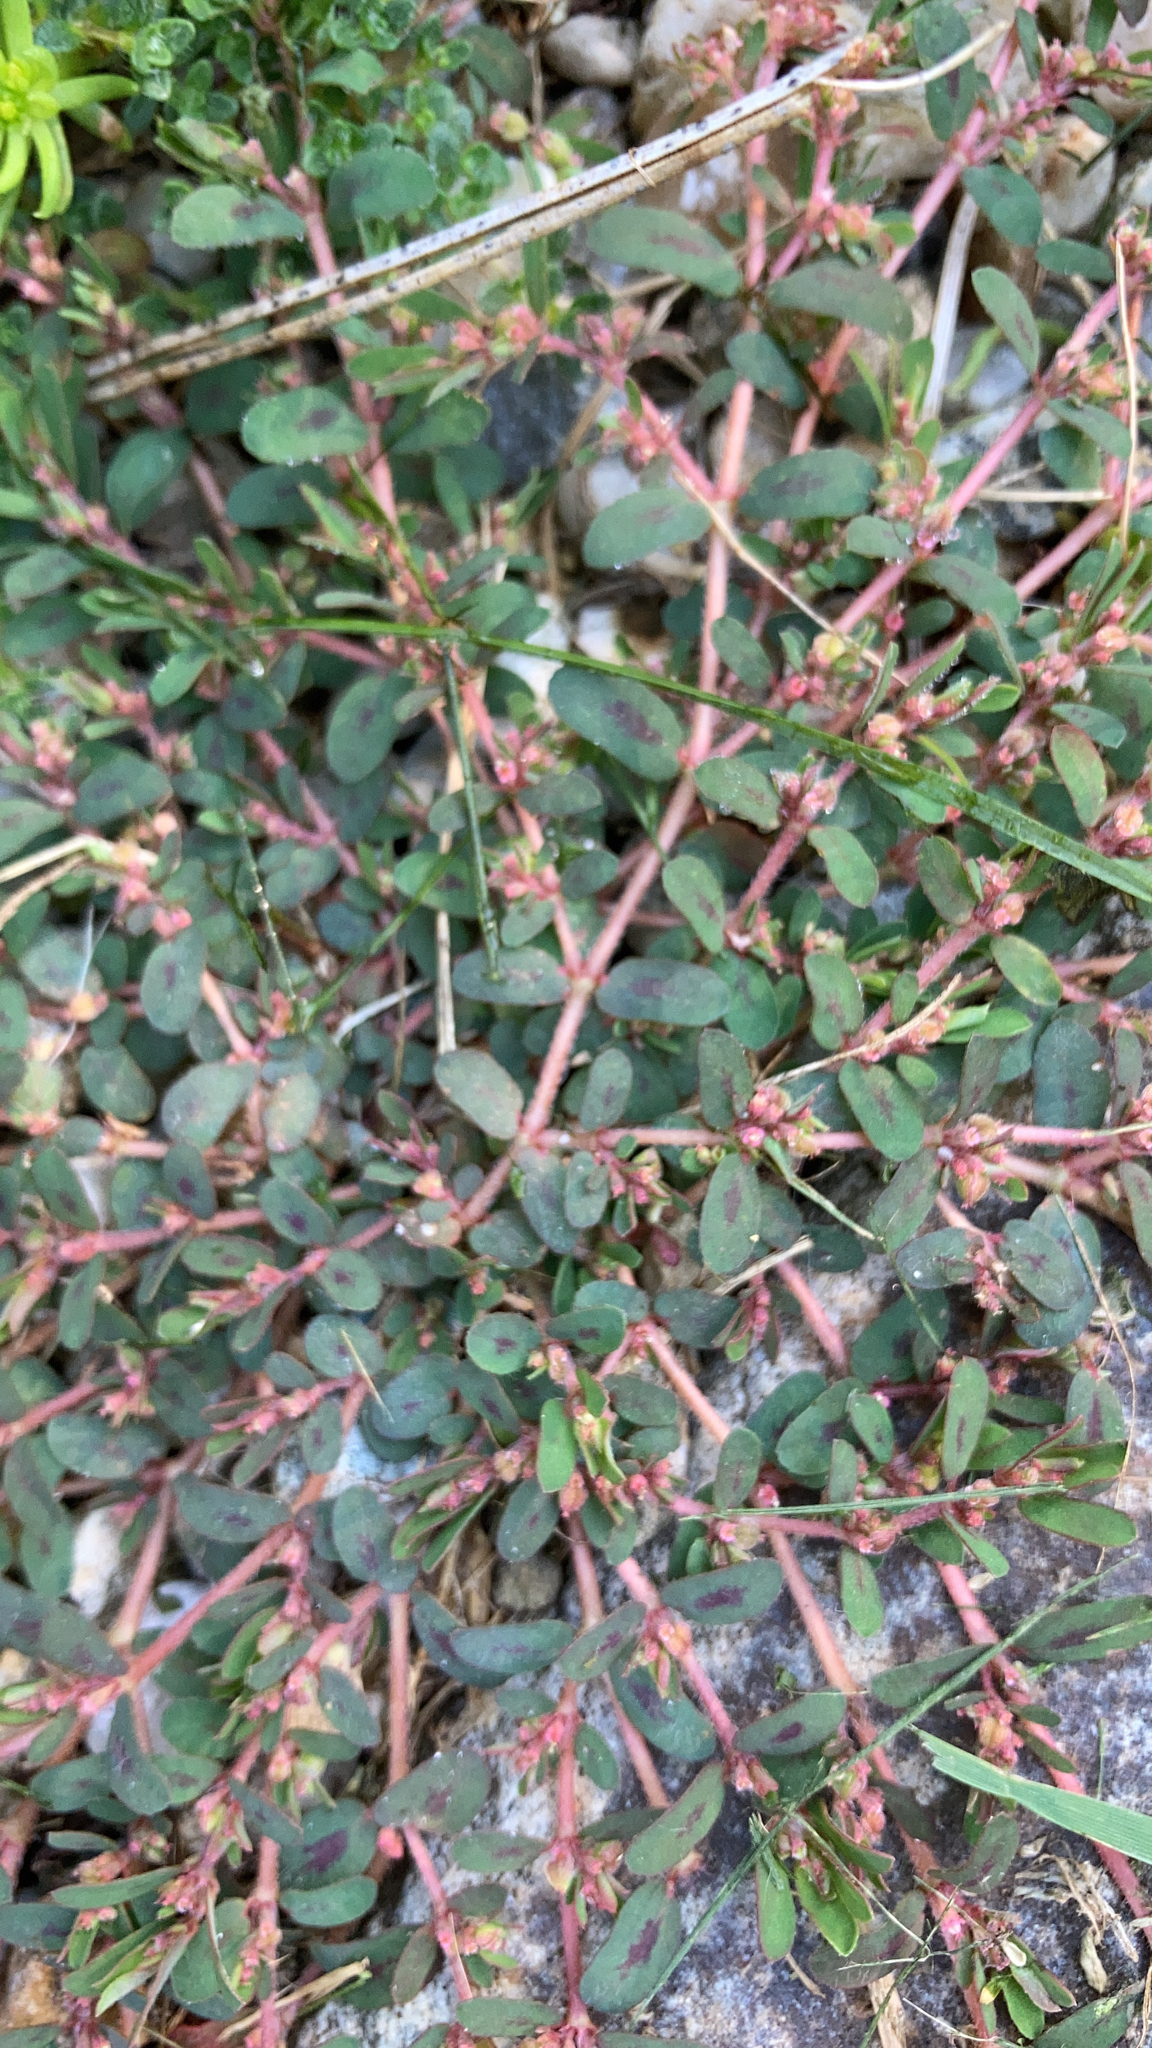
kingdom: Plantae
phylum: Tracheophyta
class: Magnoliopsida
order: Malpighiales
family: Euphorbiaceae
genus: Euphorbia
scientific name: Euphorbia maculata
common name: Spotted spurge
